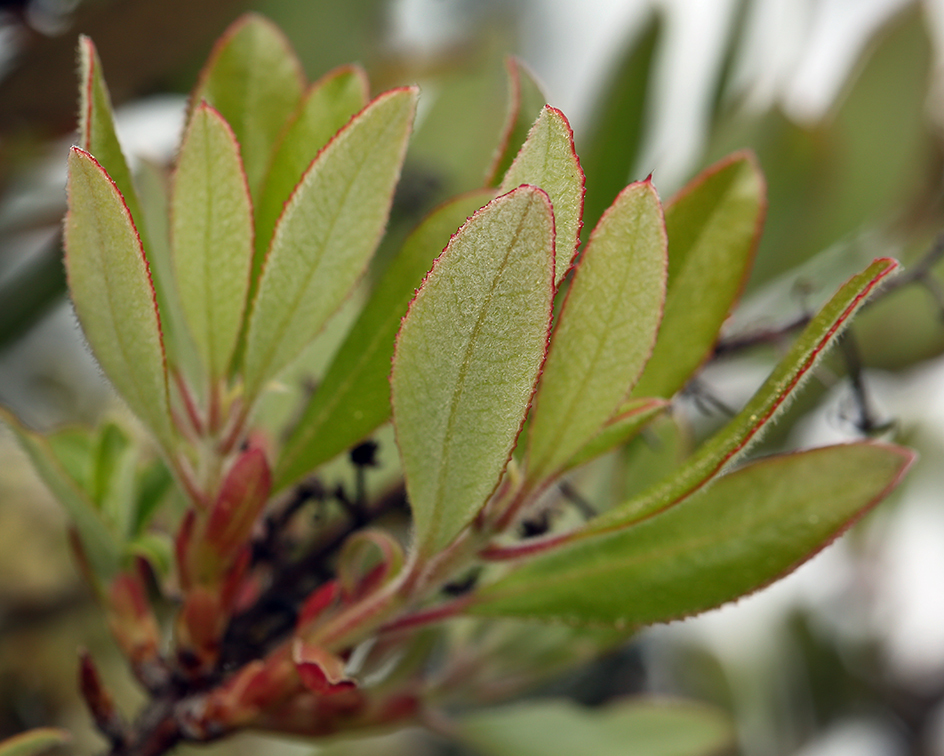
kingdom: Plantae
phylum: Tracheophyta
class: Magnoliopsida
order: Ericales
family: Ericaceae
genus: Comarostaphylis
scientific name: Comarostaphylis diversifolia
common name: Summer-holly
